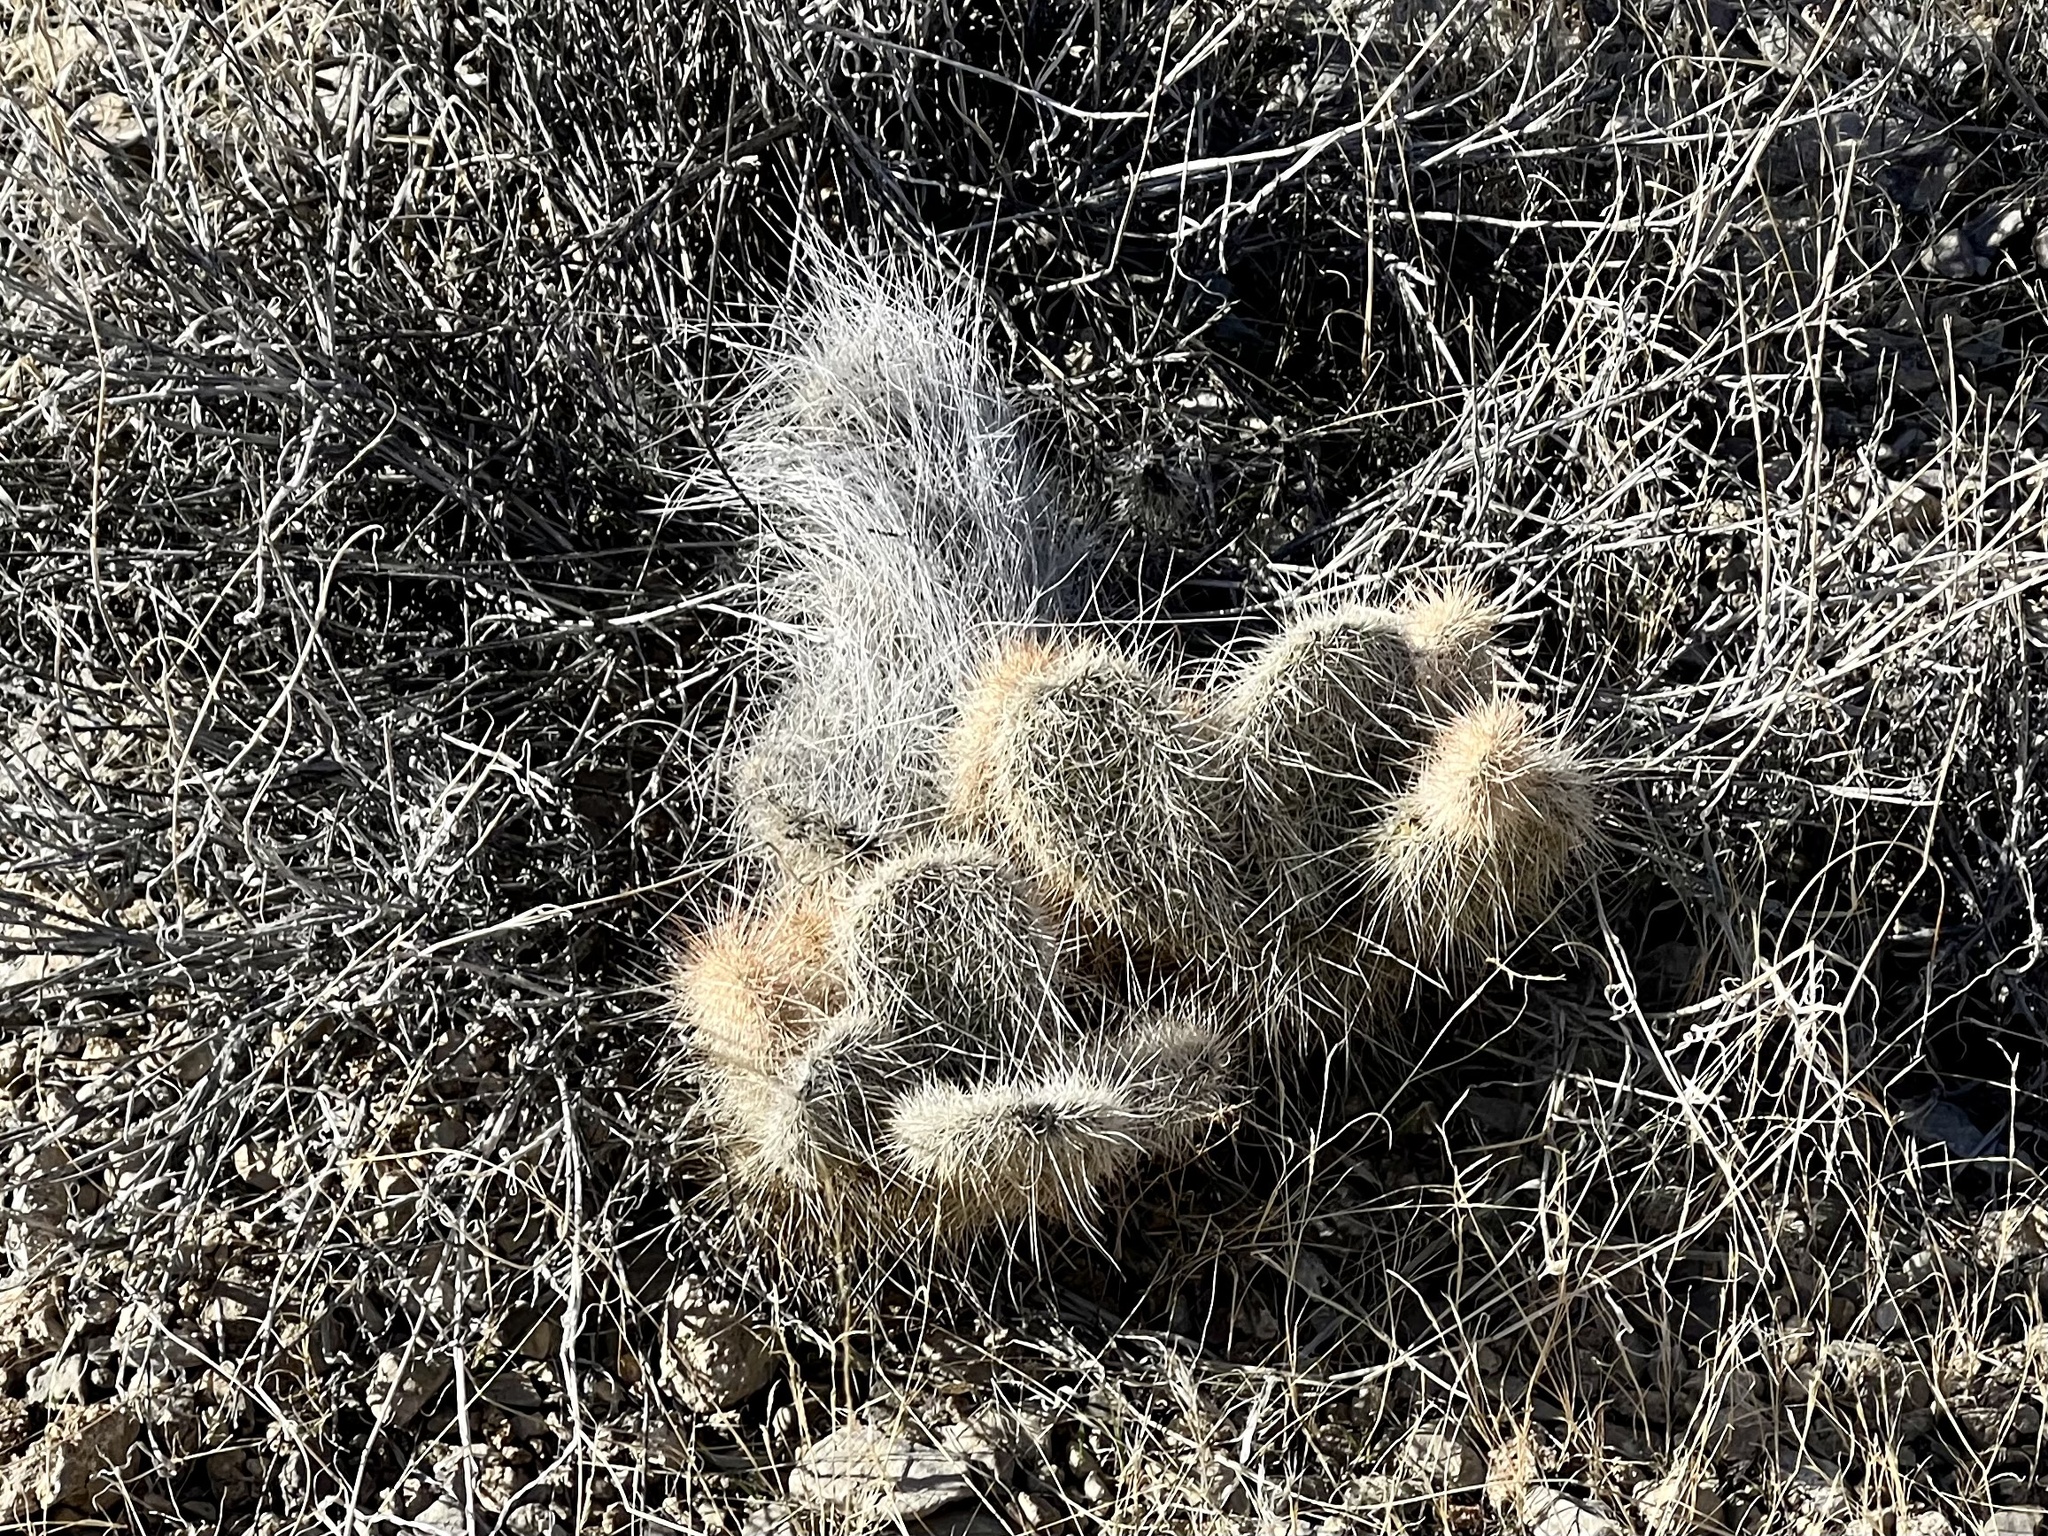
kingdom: Plantae
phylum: Tracheophyta
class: Magnoliopsida
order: Caryophyllales
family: Cactaceae
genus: Opuntia
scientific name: Opuntia polyacantha
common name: Plains prickly-pear
